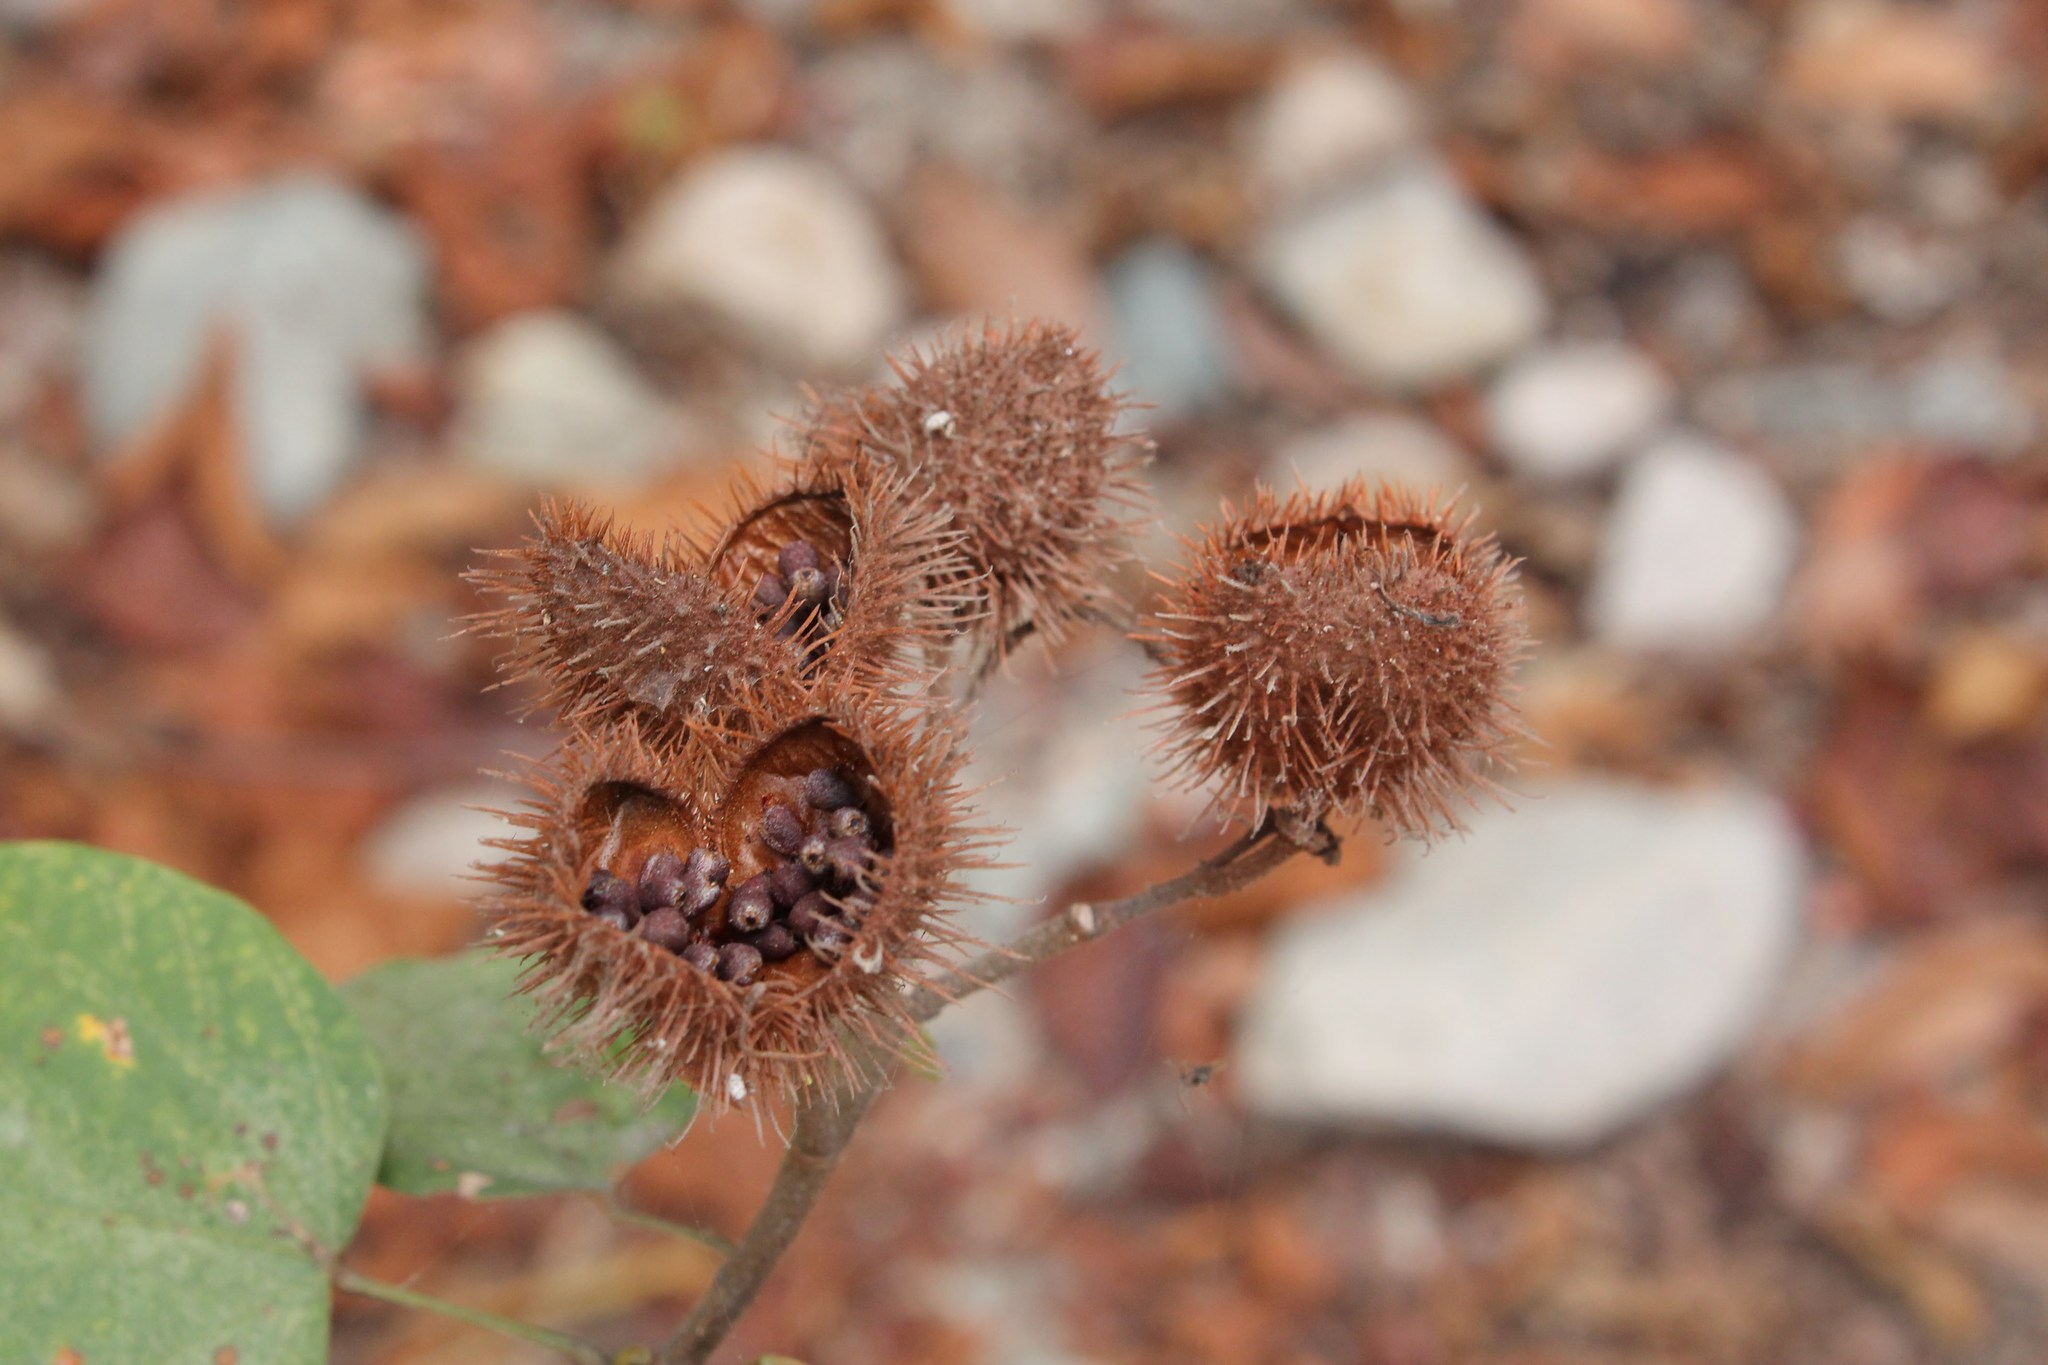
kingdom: Plantae
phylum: Tracheophyta
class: Magnoliopsida
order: Malvales
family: Bixaceae
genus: Bixa
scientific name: Bixa orellana
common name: Lipsticktree
